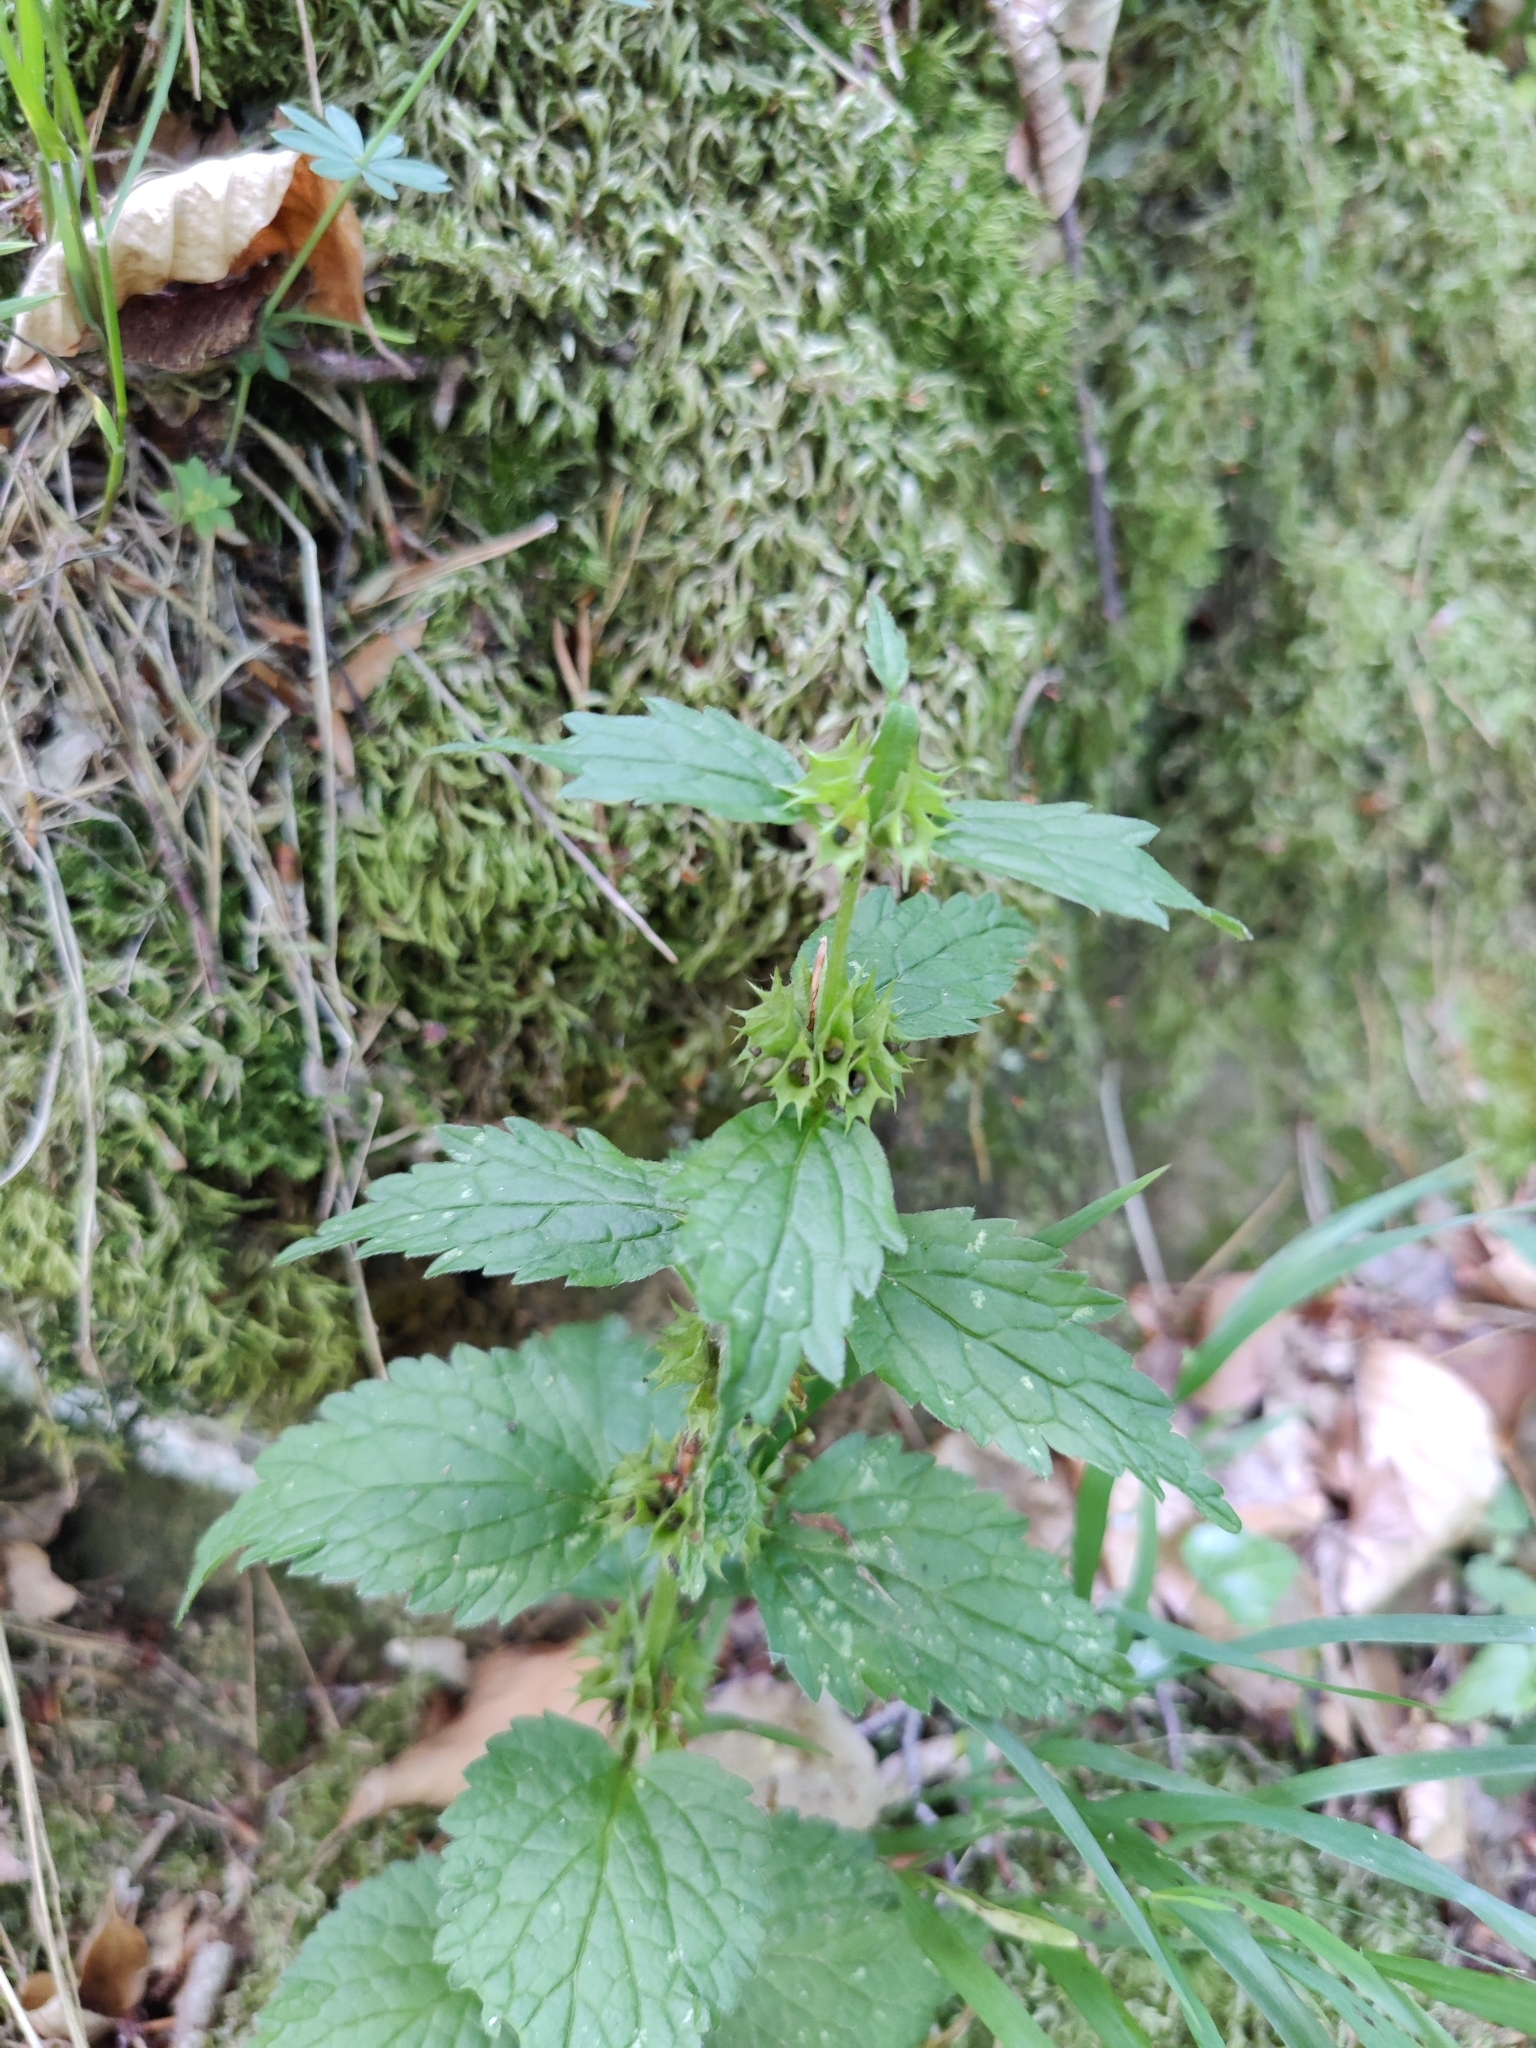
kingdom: Plantae
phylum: Tracheophyta
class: Magnoliopsida
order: Lamiales
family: Lamiaceae
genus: Lamium
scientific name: Lamium galeobdolon
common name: Yellow archangel
